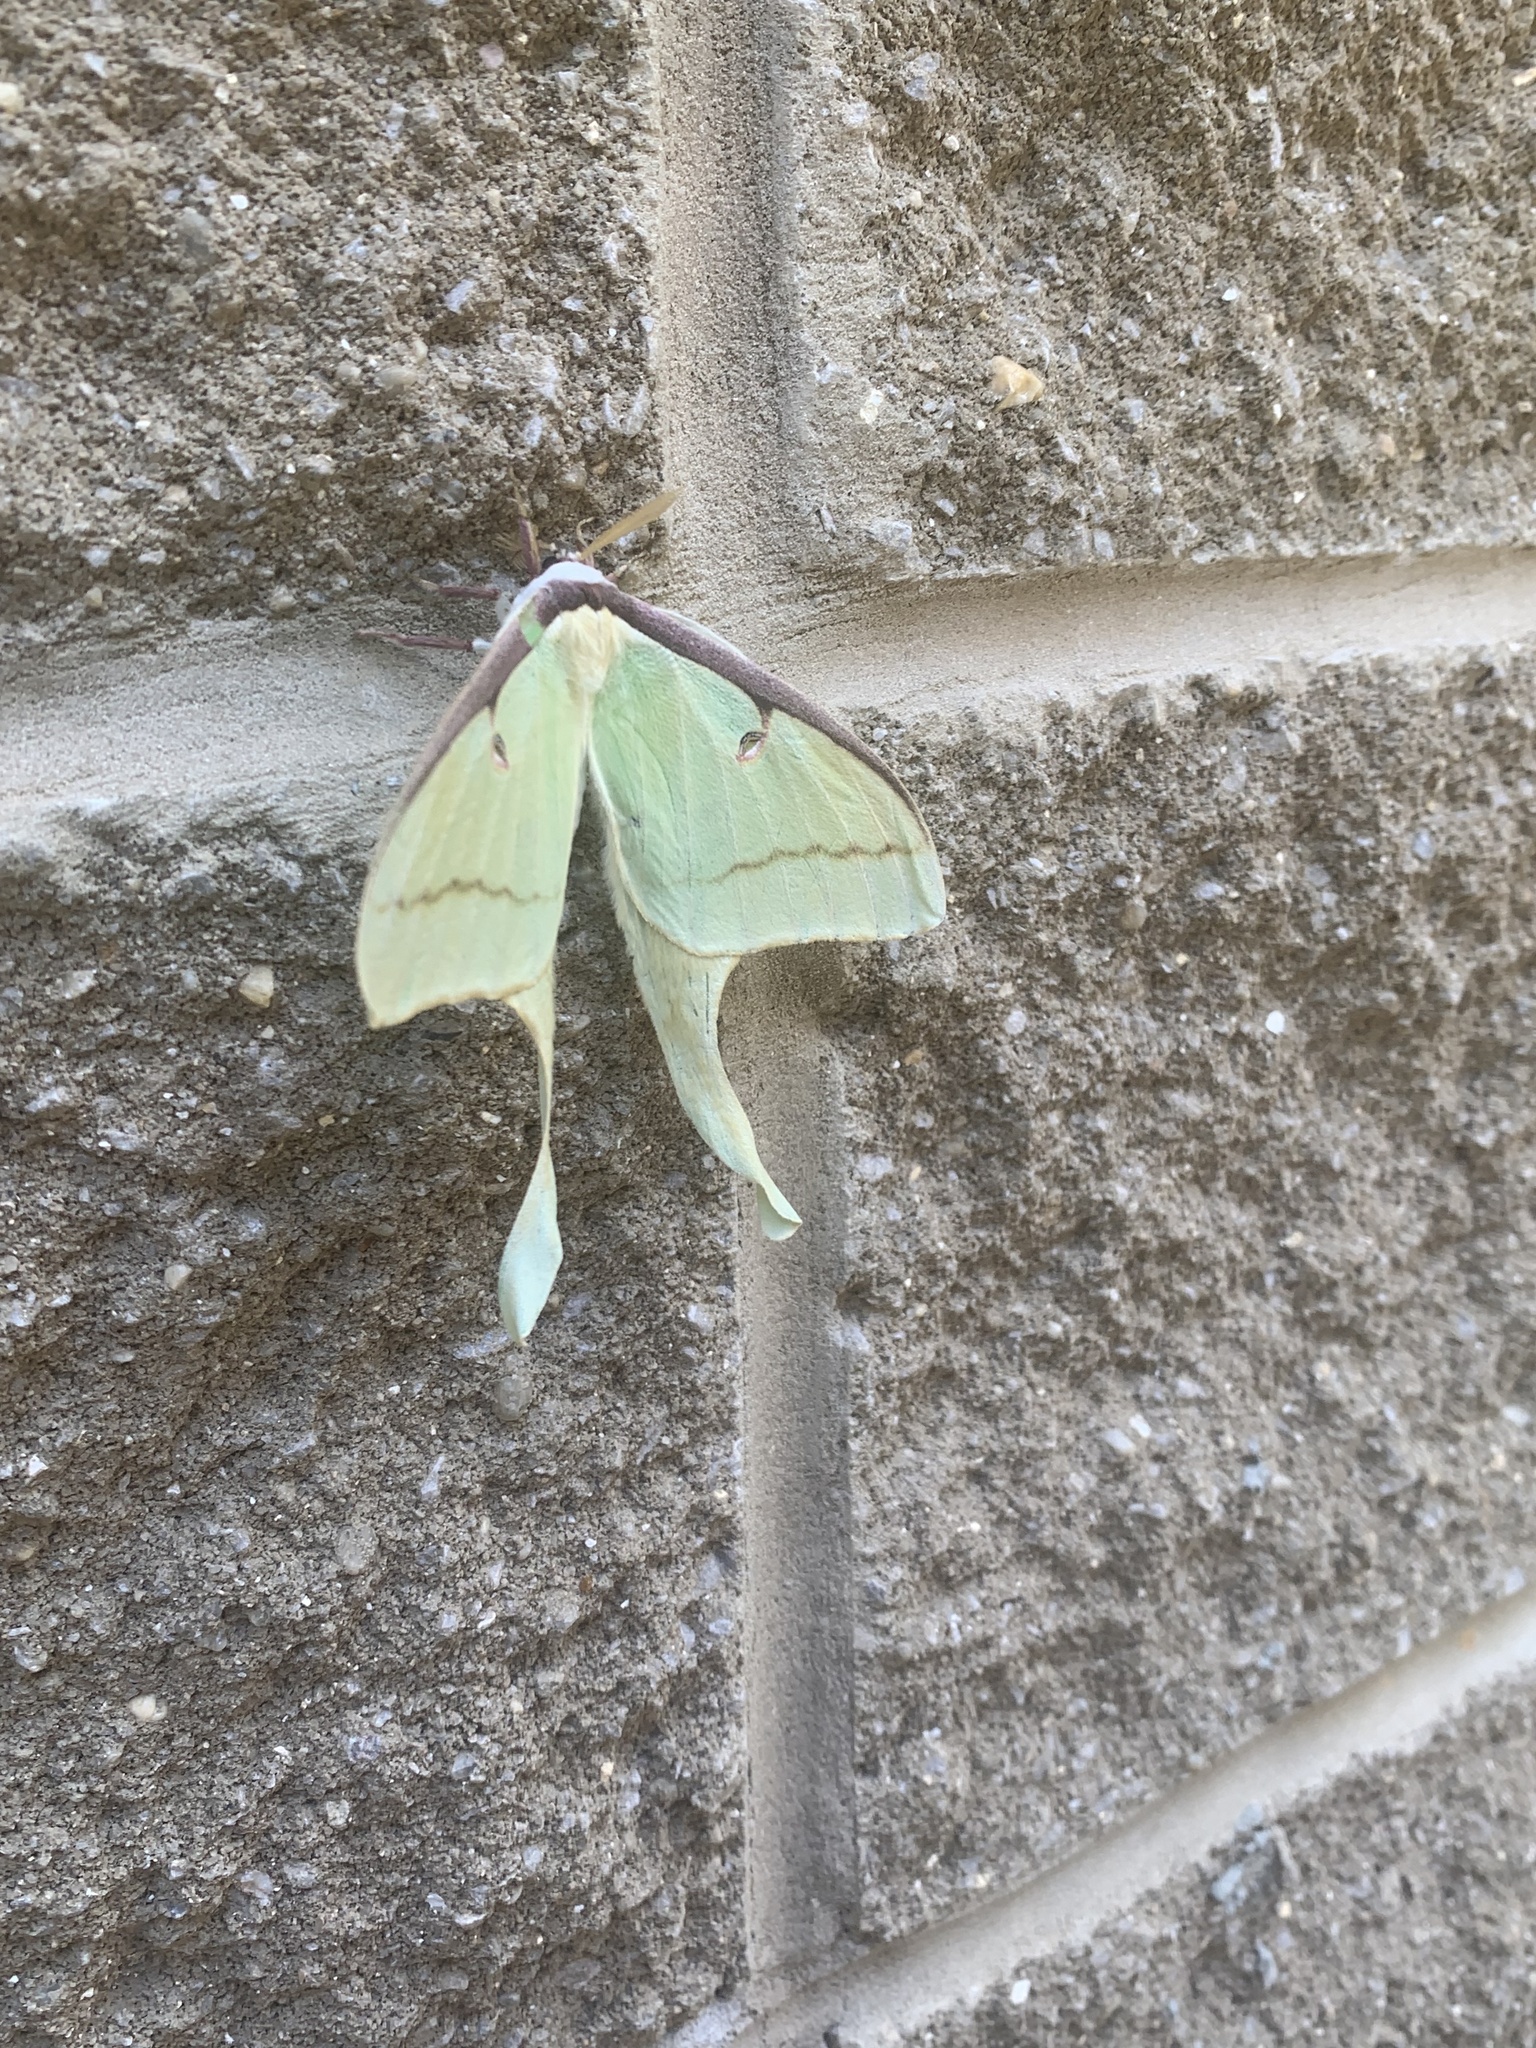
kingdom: Animalia
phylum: Arthropoda
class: Insecta
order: Lepidoptera
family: Saturniidae
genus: Actias
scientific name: Actias luna
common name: Luna moth
